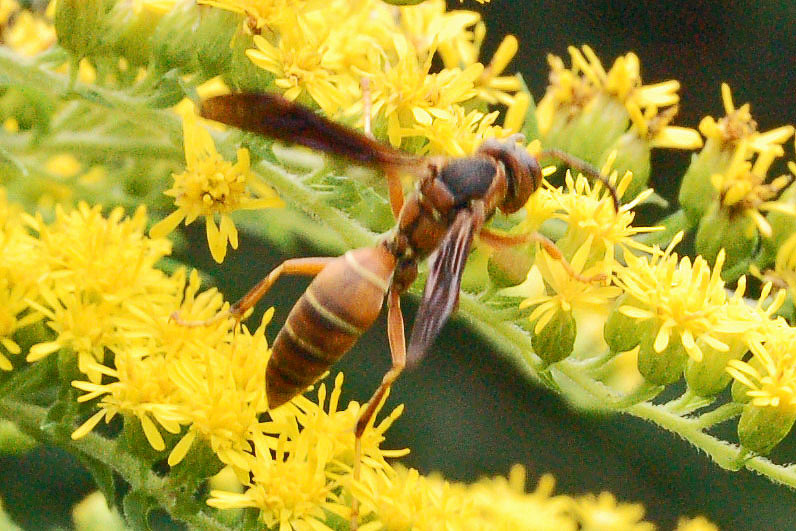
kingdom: Animalia
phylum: Arthropoda
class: Insecta
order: Hymenoptera
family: Eumenidae
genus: Polistes
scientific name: Polistes fuscatus
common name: Dark paper wasp
